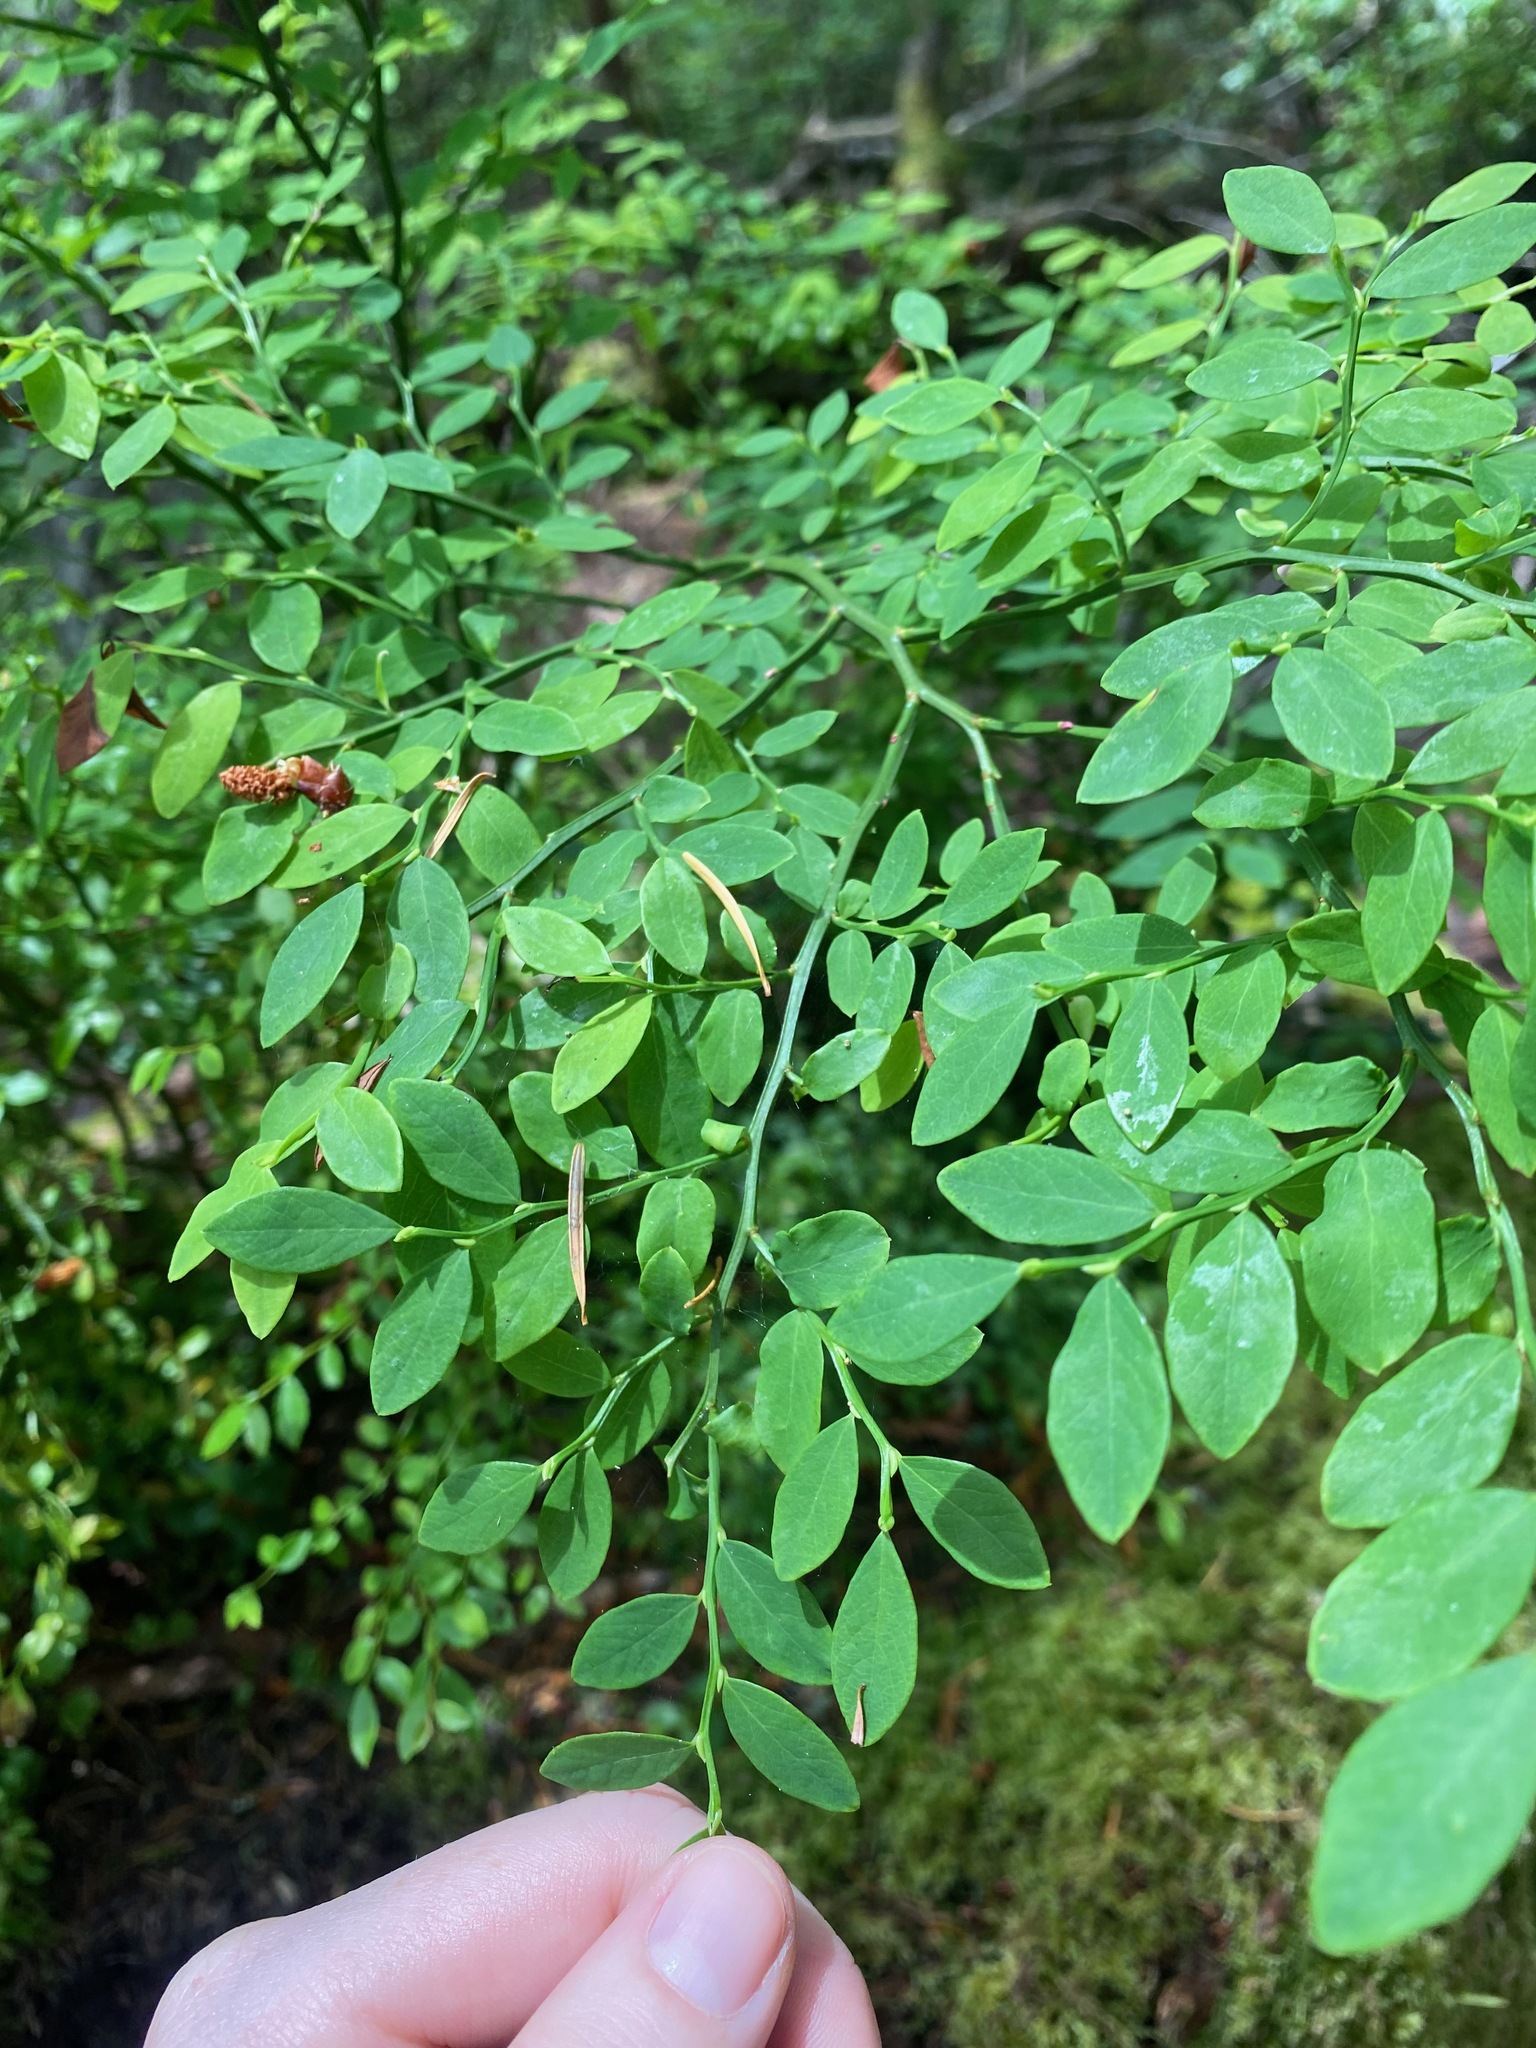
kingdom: Plantae
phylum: Tracheophyta
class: Magnoliopsida
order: Ericales
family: Ericaceae
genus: Vaccinium
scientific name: Vaccinium parvifolium
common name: Red-huckleberry
